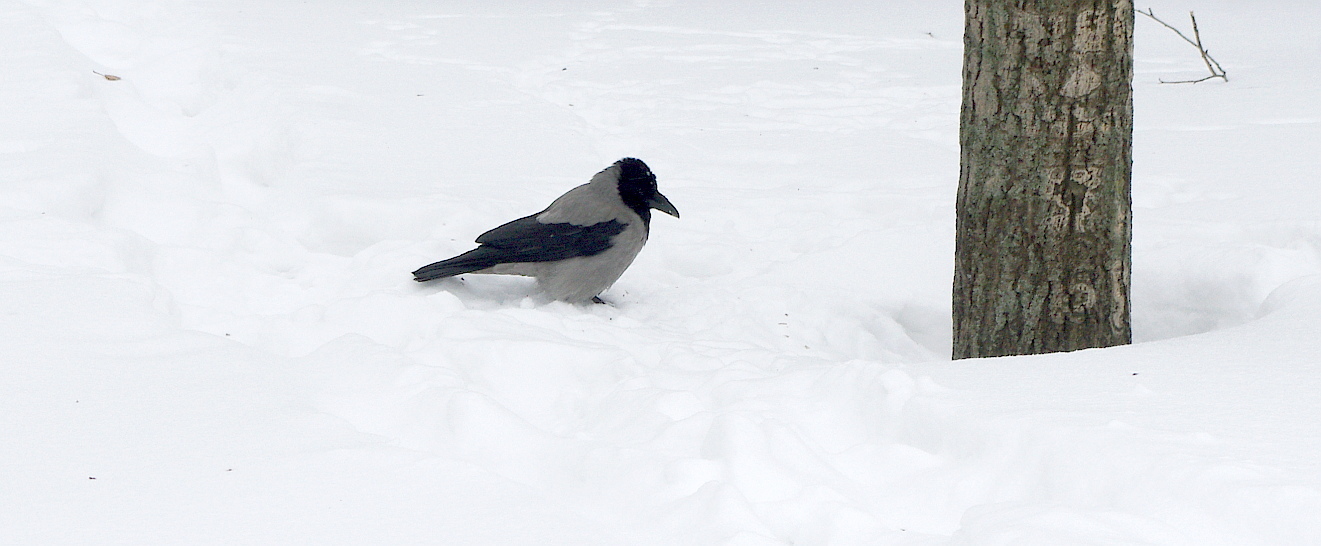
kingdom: Animalia
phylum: Chordata
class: Aves
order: Passeriformes
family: Corvidae
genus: Corvus
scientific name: Corvus cornix
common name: Hooded crow
